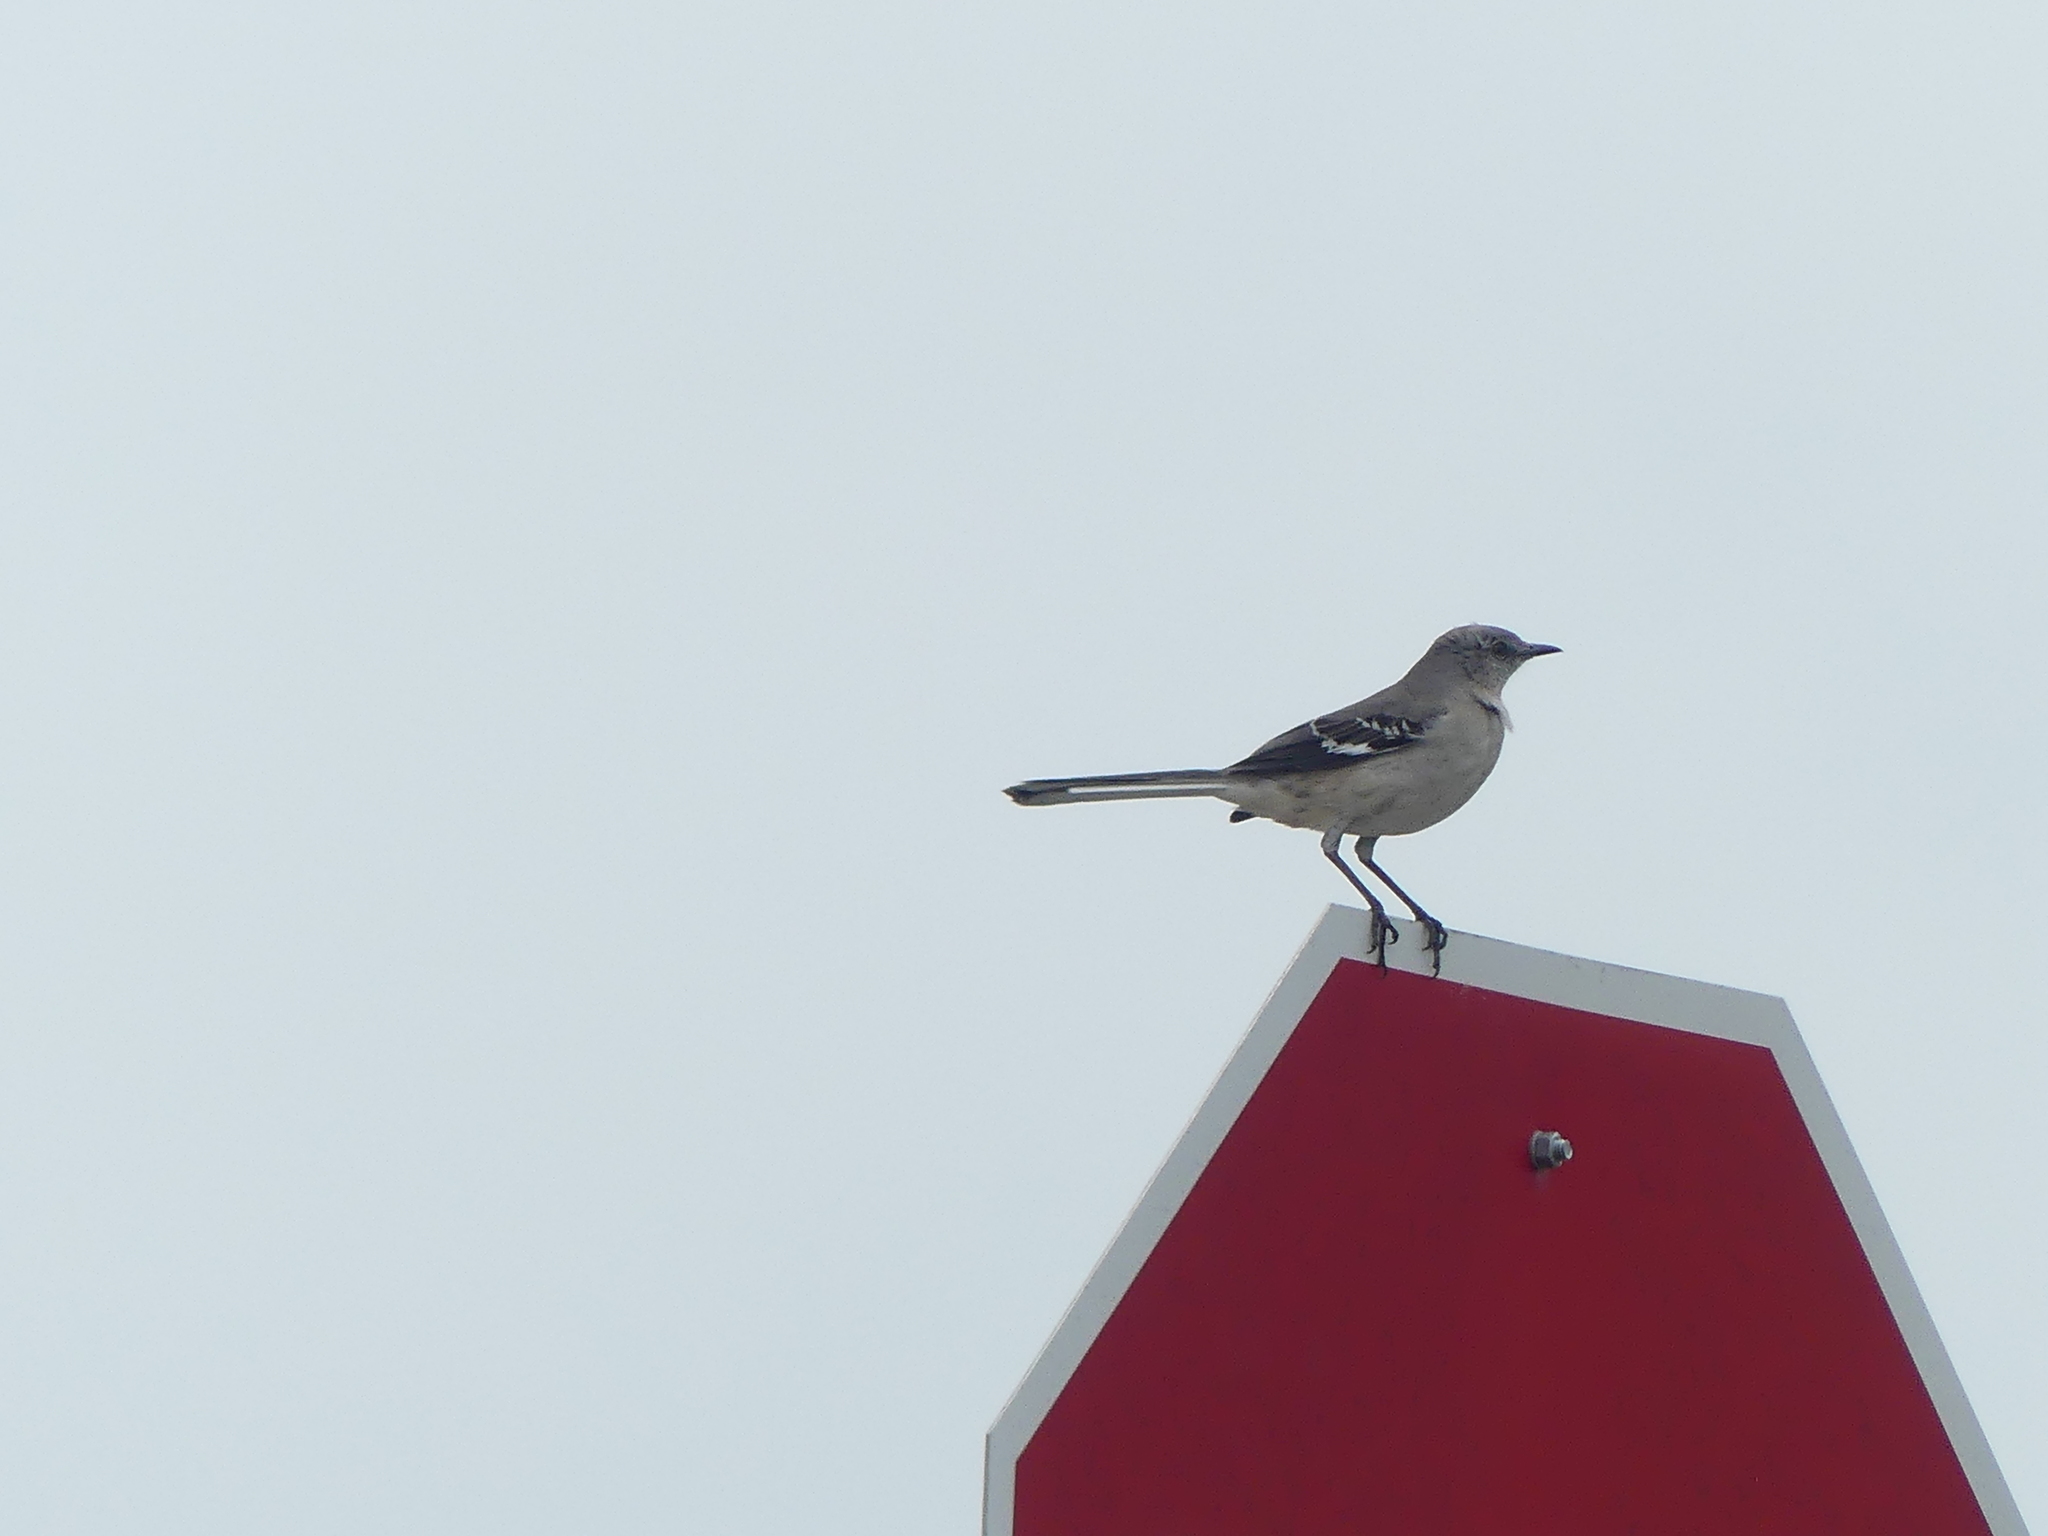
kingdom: Animalia
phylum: Chordata
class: Aves
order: Passeriformes
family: Mimidae
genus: Mimus
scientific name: Mimus polyglottos
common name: Northern mockingbird
